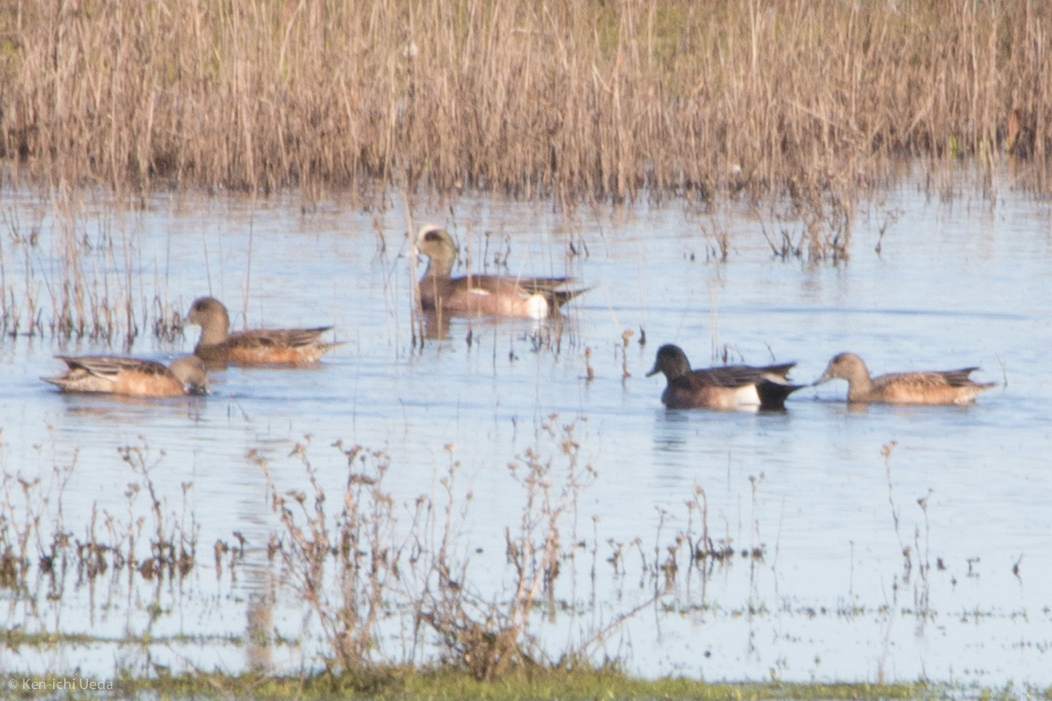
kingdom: Animalia
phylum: Chordata
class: Aves
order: Anseriformes
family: Anatidae
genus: Mareca
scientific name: Mareca americana
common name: American wigeon
